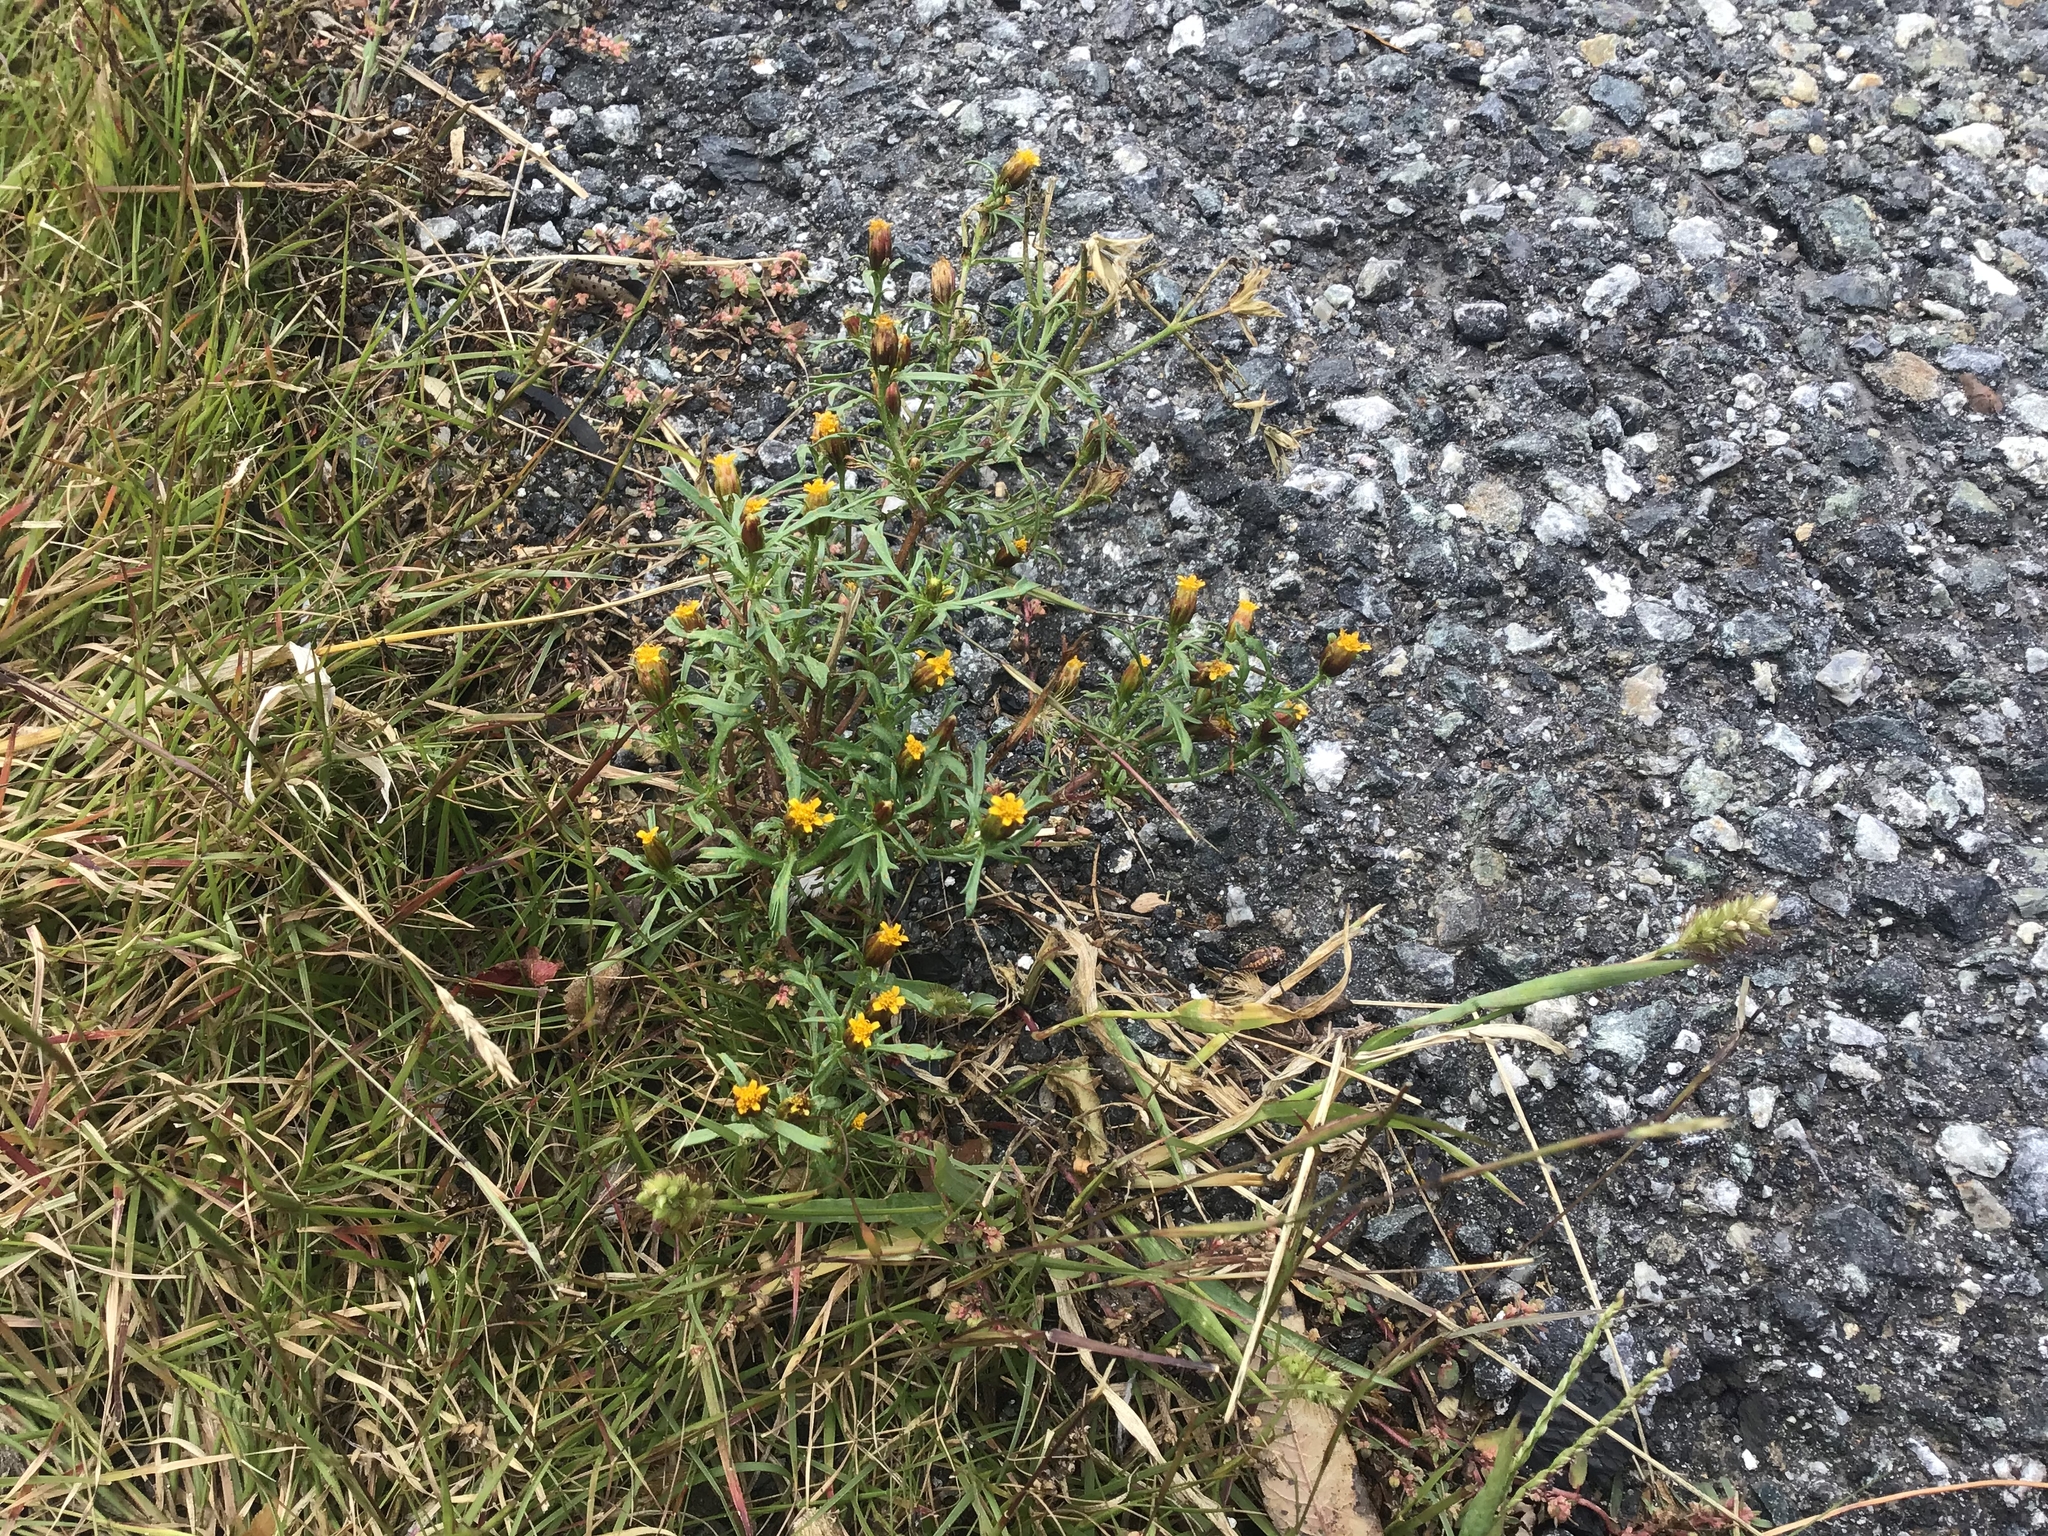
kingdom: Plantae
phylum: Tracheophyta
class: Magnoliopsida
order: Asterales
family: Asteraceae
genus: Dyssodia
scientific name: Dyssodia papposa
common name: Dogweed
